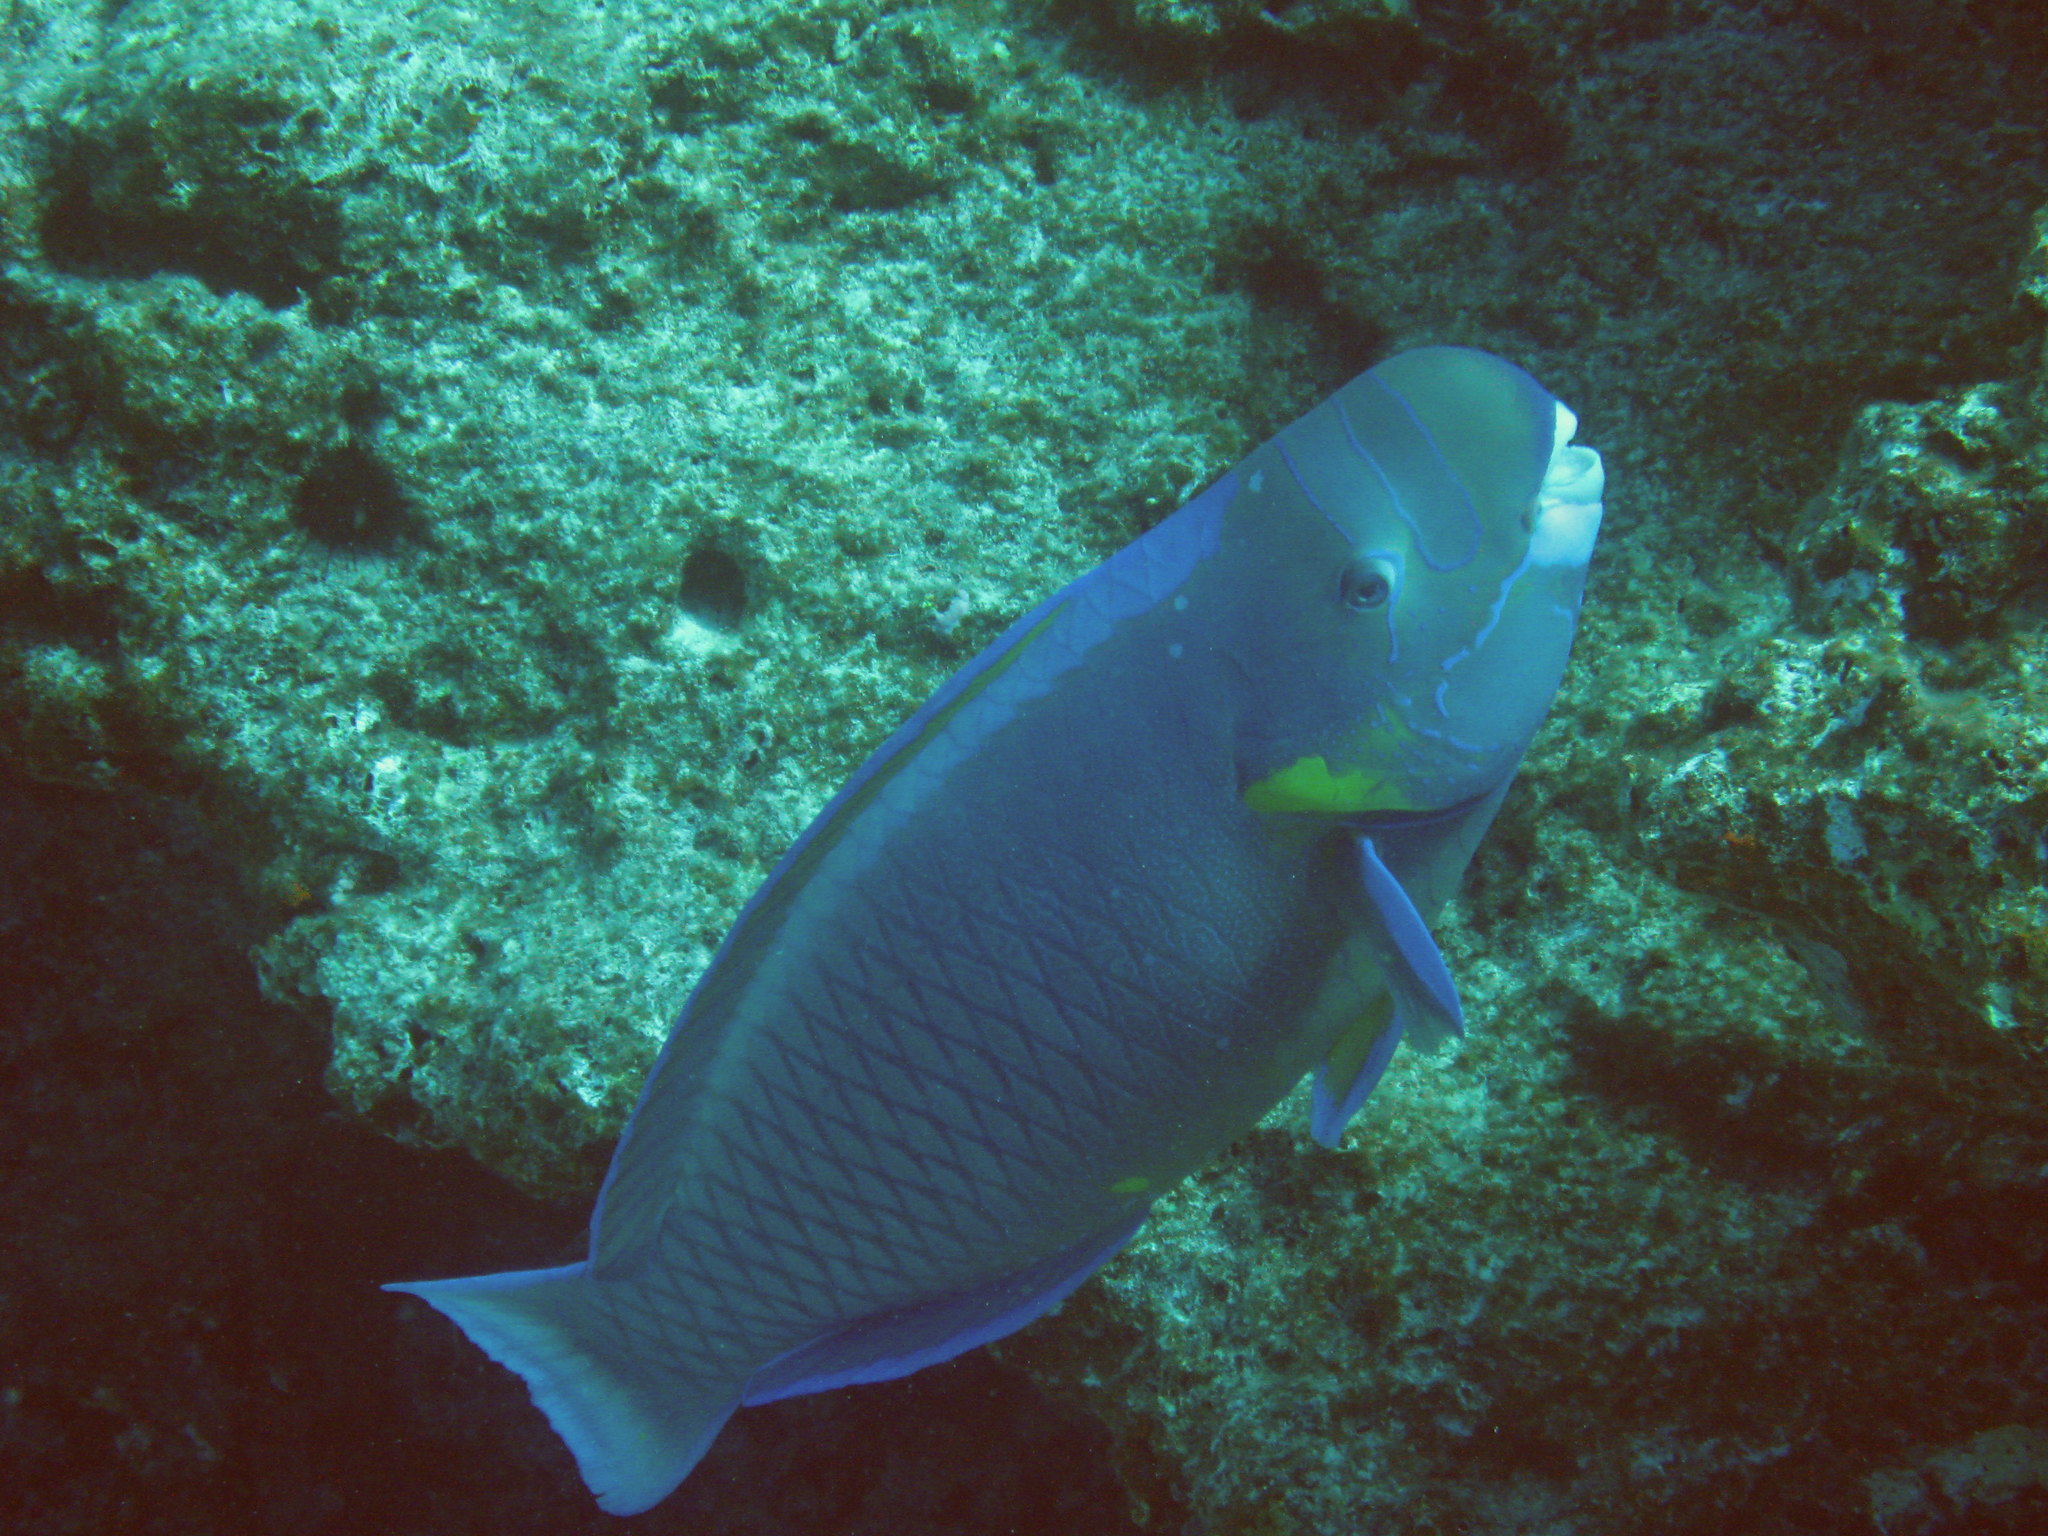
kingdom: Animalia
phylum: Chordata
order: Perciformes
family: Scaridae
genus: Chlorurus
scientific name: Chlorurus perspicillatus
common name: Spectacled parrotfish
